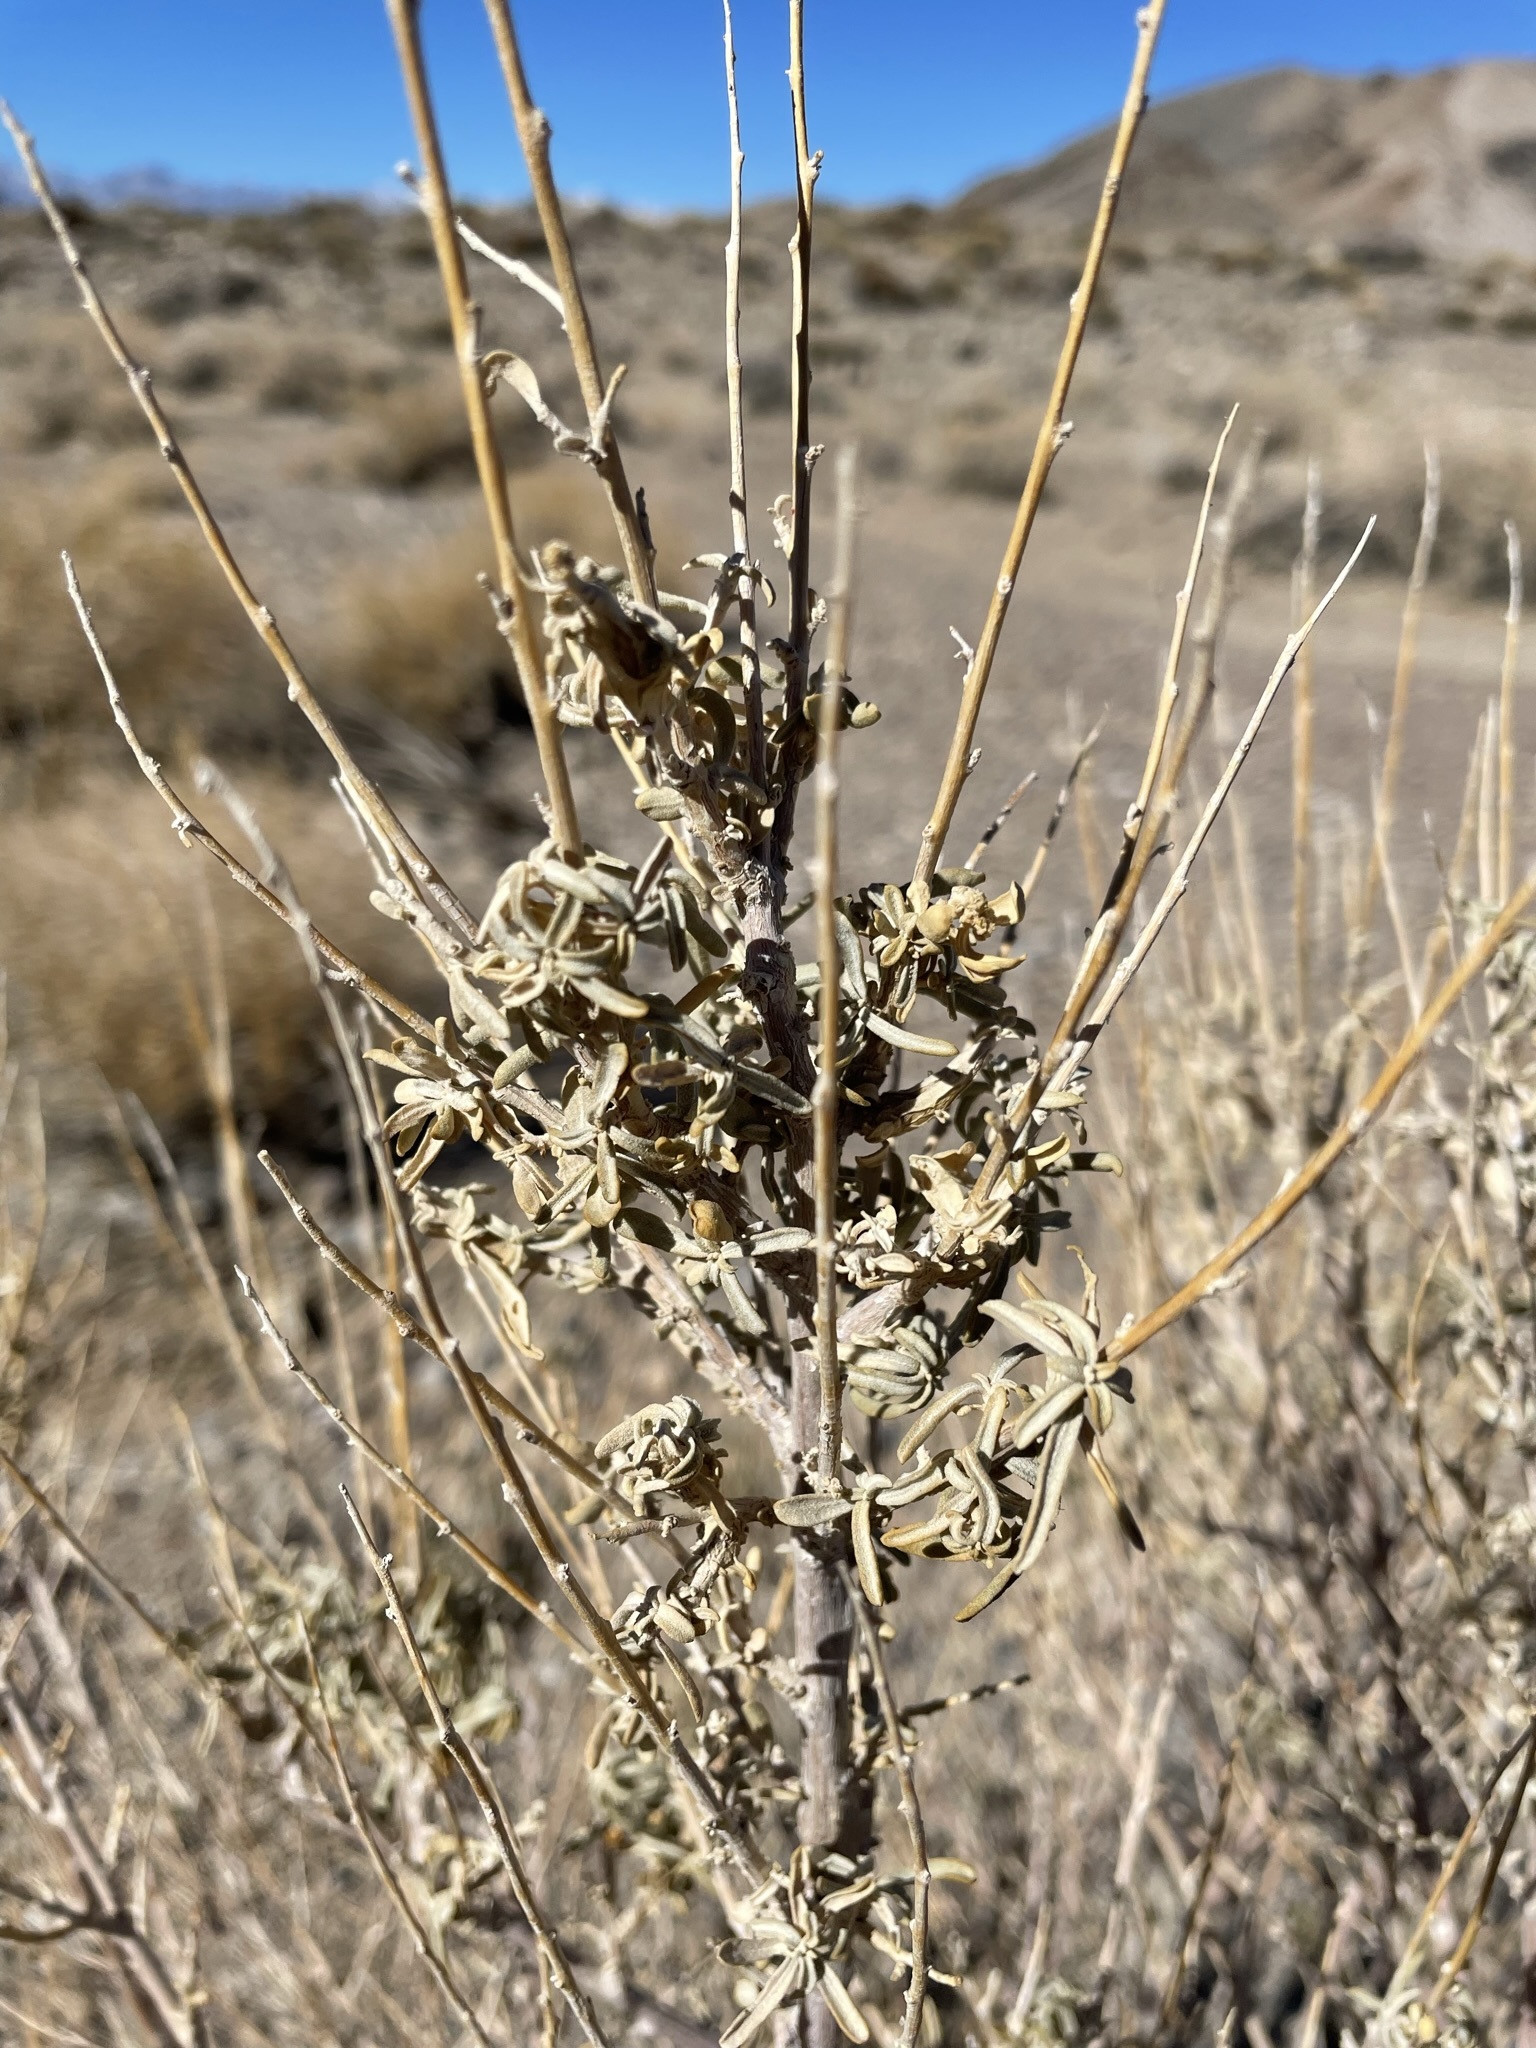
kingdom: Plantae
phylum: Tracheophyta
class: Magnoliopsida
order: Caryophyllales
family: Amaranthaceae
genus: Atriplex
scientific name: Atriplex canescens
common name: Four-wing saltbush
